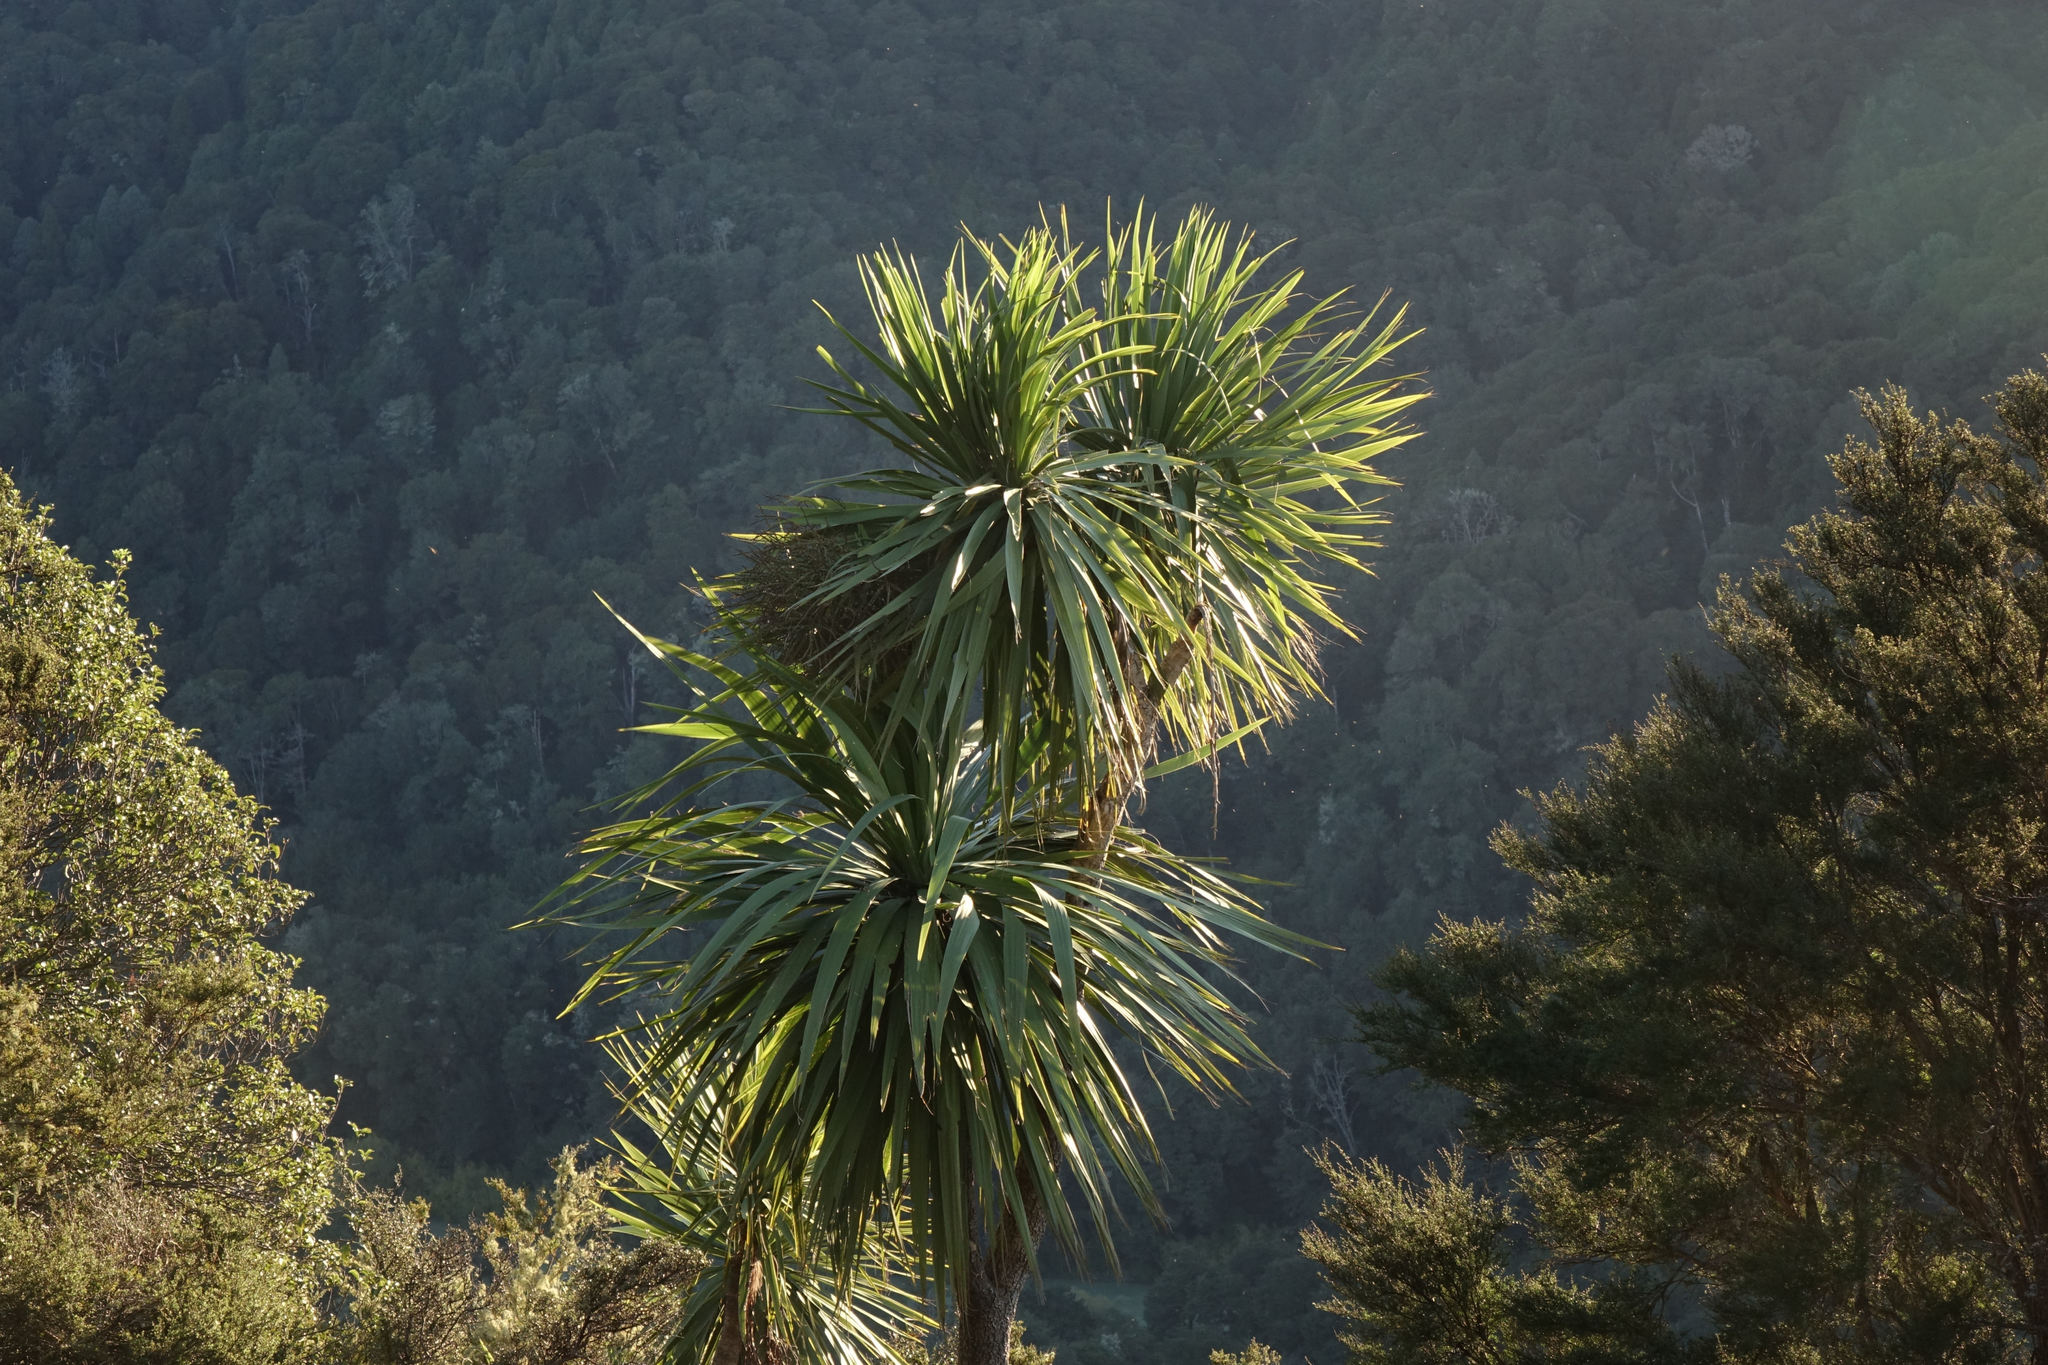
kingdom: Plantae
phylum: Tracheophyta
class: Liliopsida
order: Asparagales
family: Asparagaceae
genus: Cordyline
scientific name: Cordyline australis
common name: Cabbage-palm
